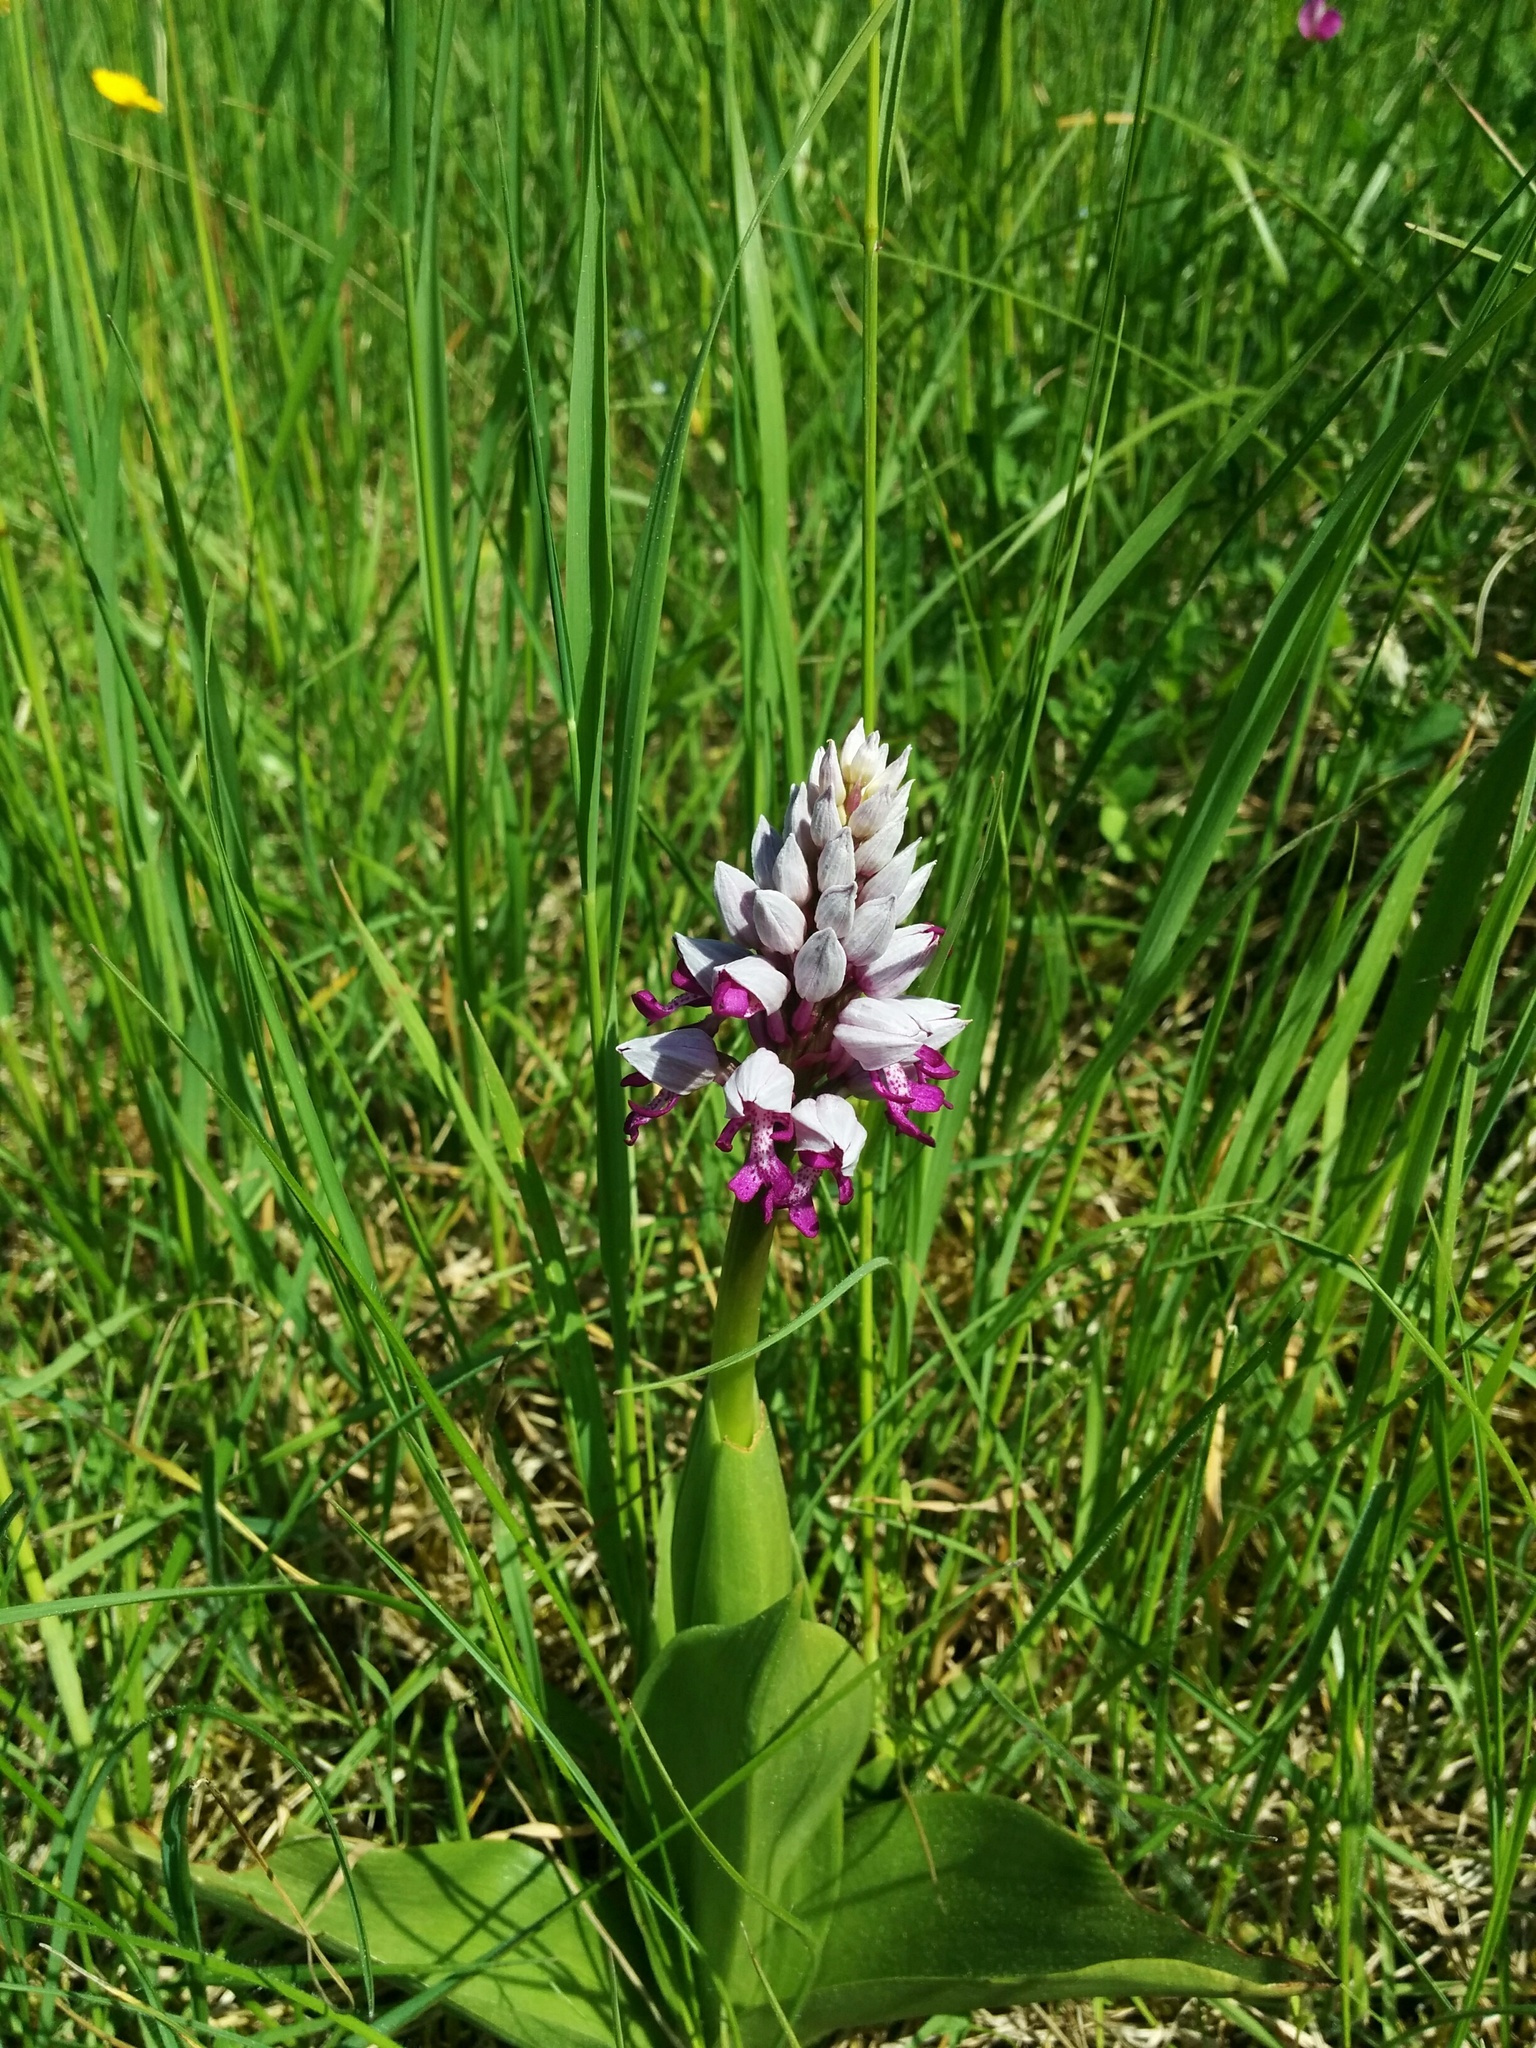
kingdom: Plantae
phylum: Tracheophyta
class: Liliopsida
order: Asparagales
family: Orchidaceae
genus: Orchis
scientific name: Orchis militaris
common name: Military orchid
